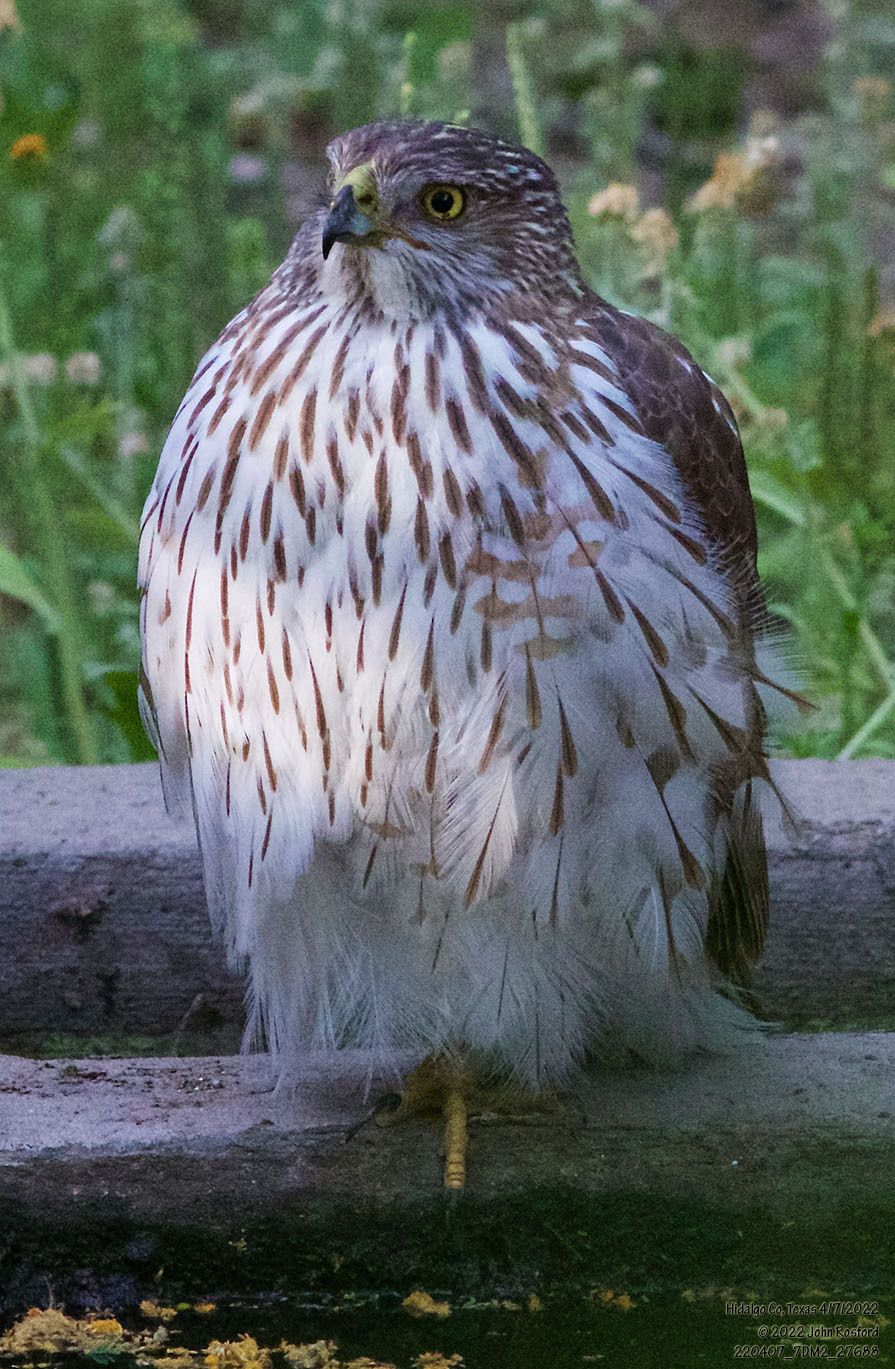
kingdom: Animalia
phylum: Chordata
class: Aves
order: Accipitriformes
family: Accipitridae
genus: Accipiter
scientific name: Accipiter cooperii
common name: Cooper's hawk
